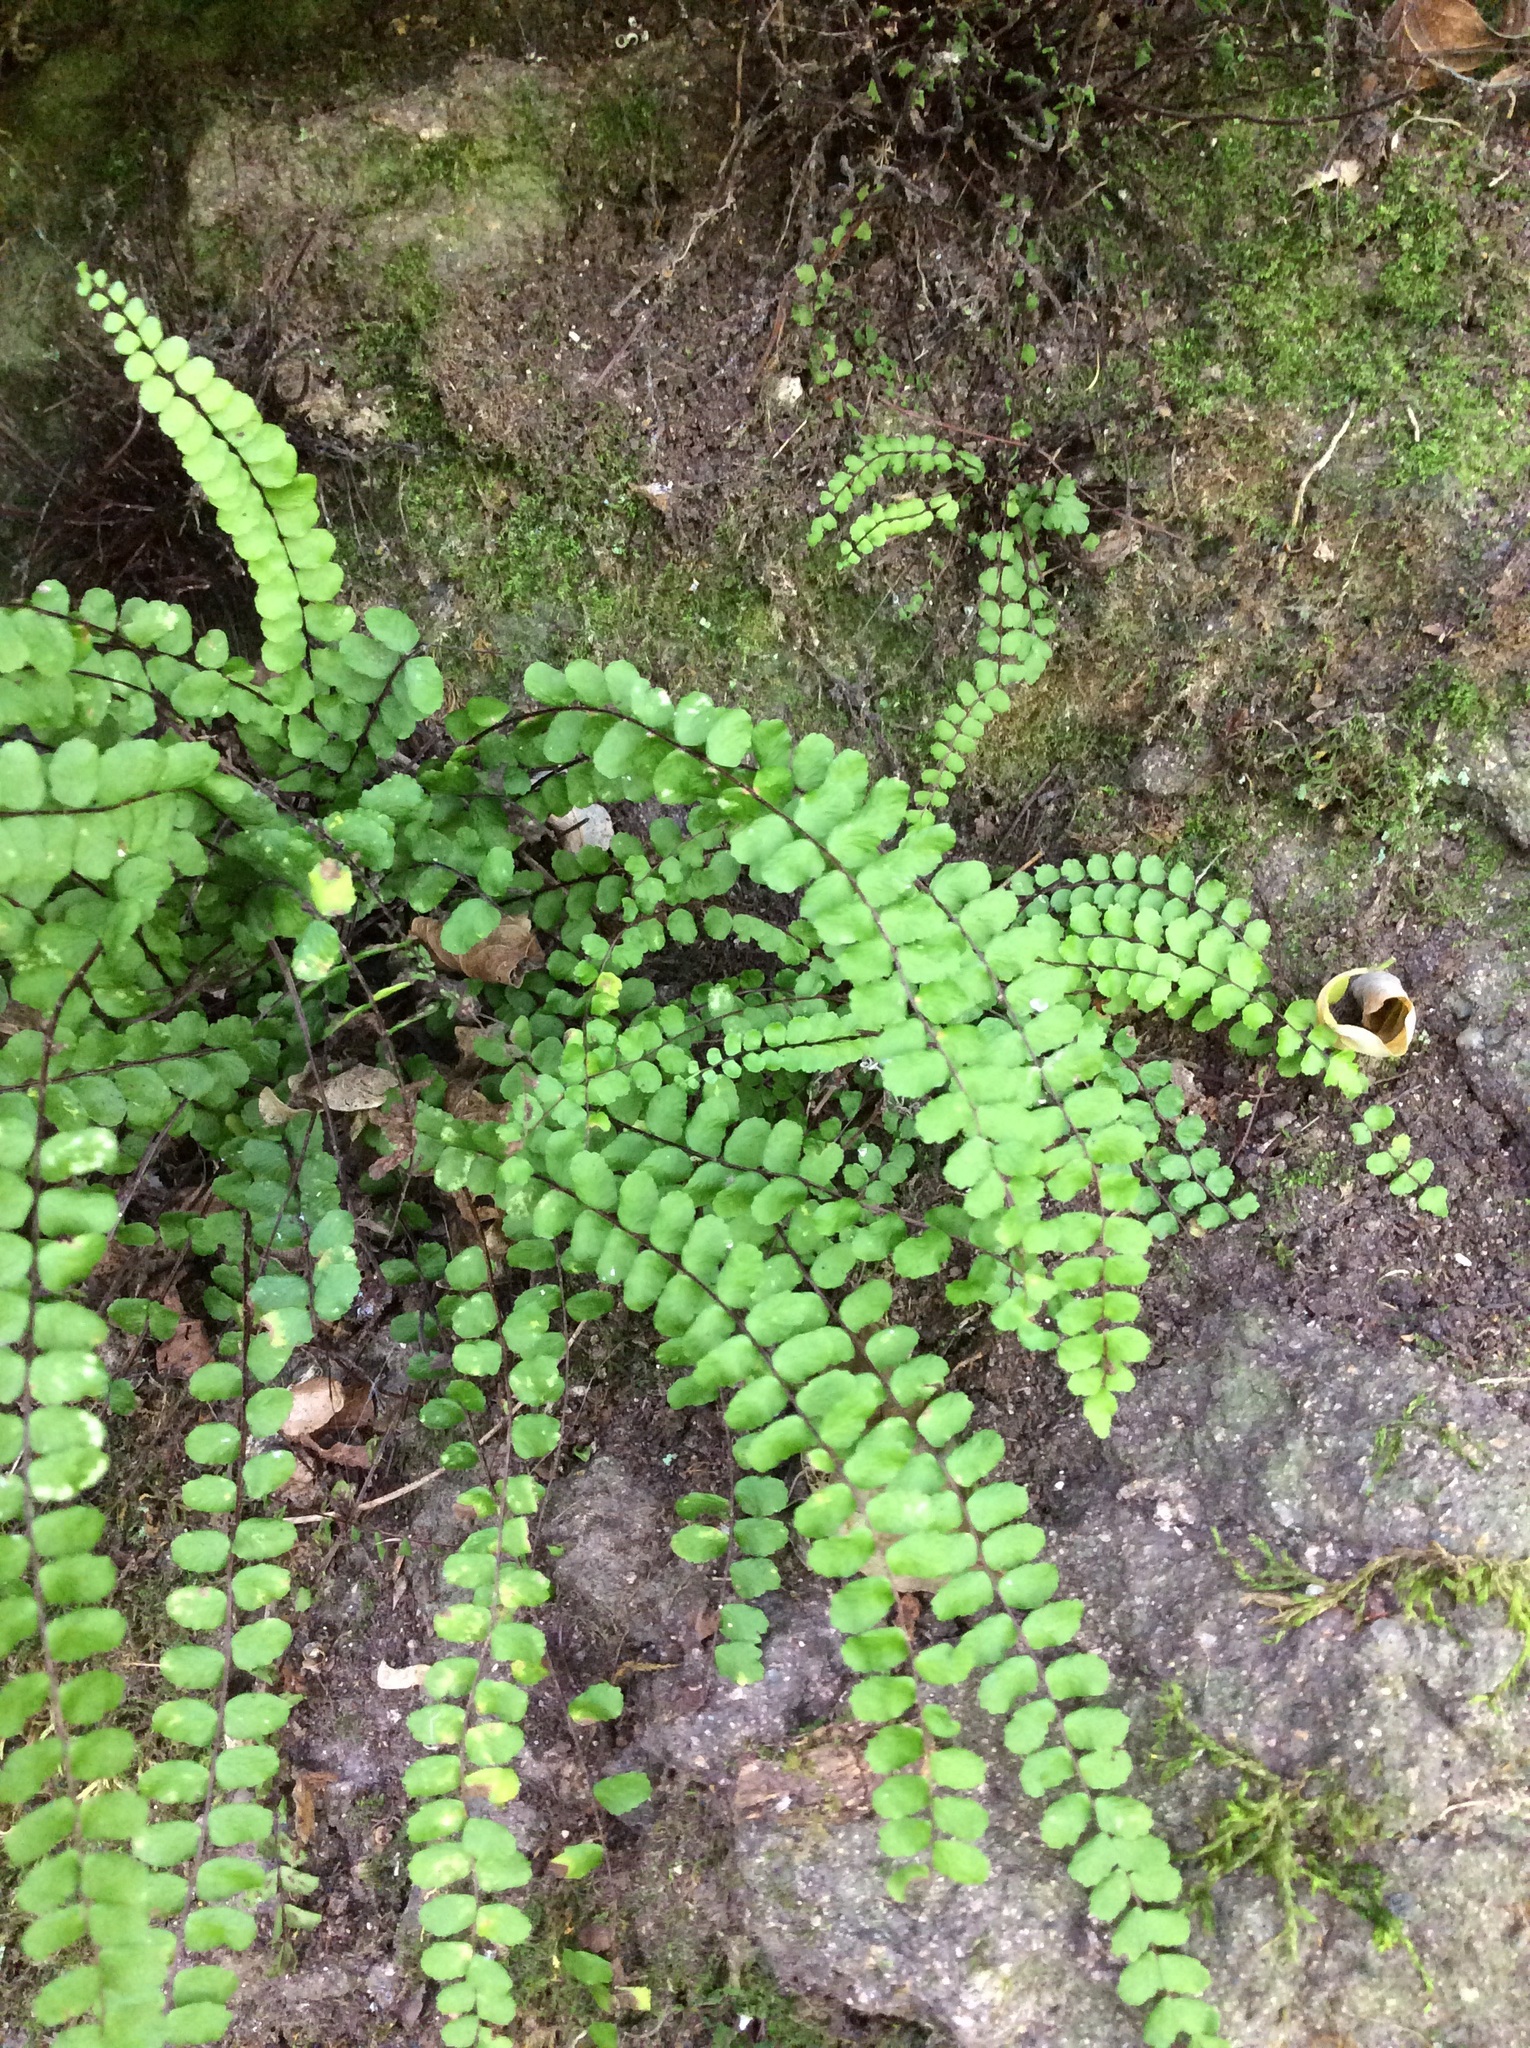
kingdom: Plantae
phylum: Tracheophyta
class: Polypodiopsida
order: Polypodiales
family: Aspleniaceae
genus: Asplenium
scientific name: Asplenium trichomanes
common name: Maidenhair spleenwort
